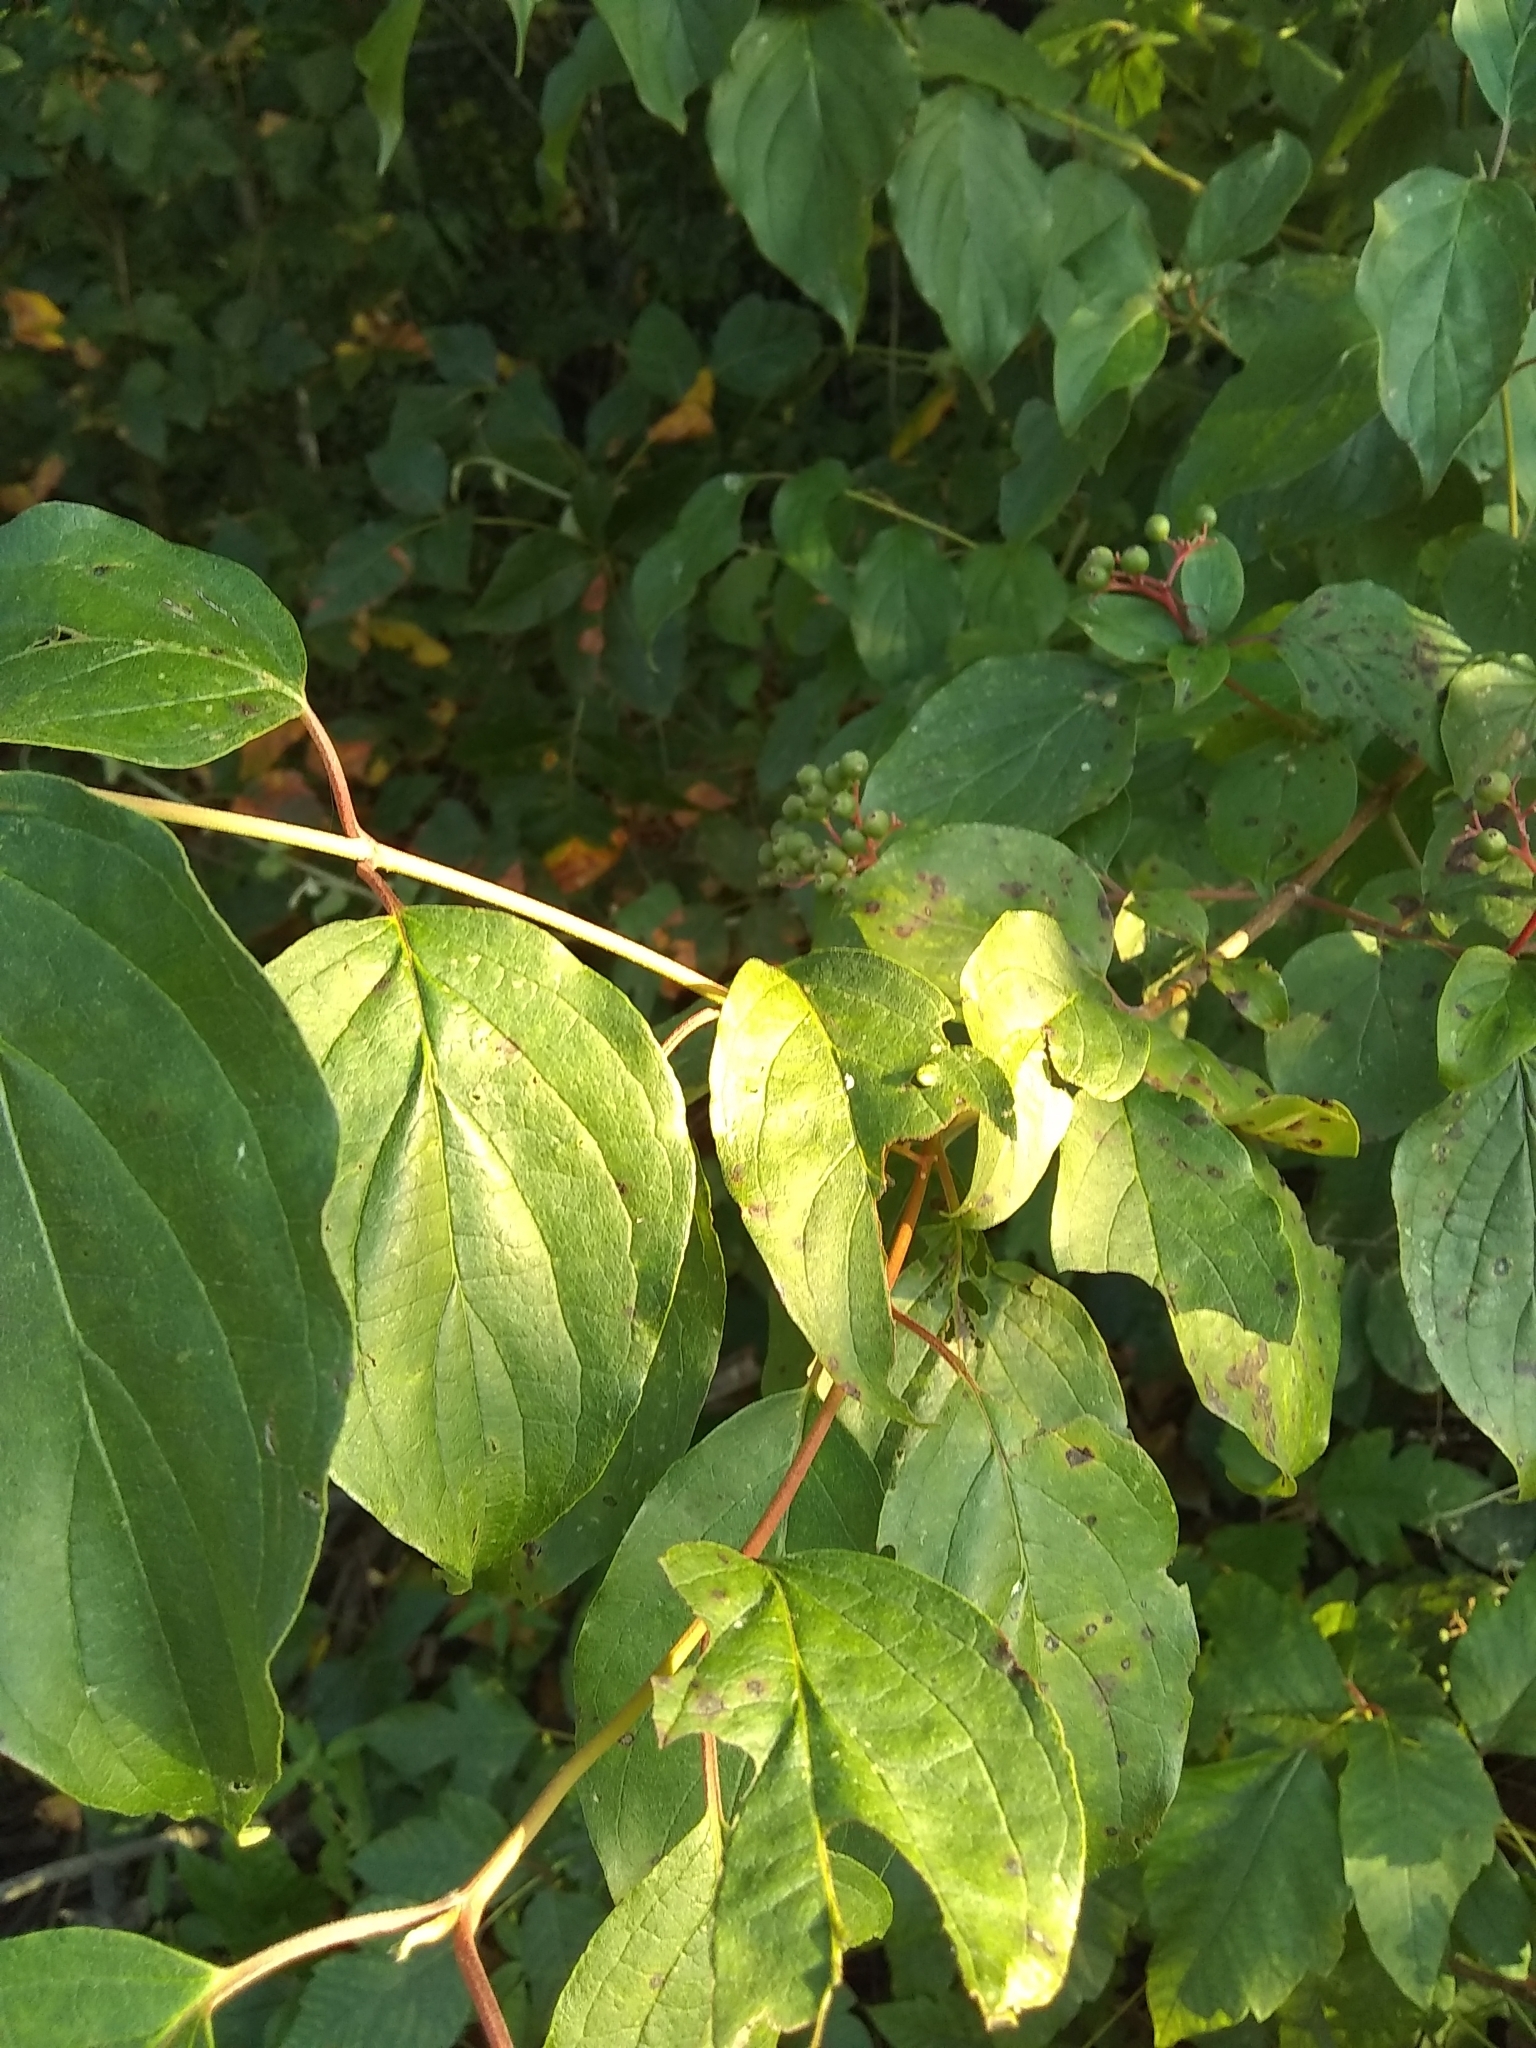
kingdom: Plantae
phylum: Tracheophyta
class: Magnoliopsida
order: Cornales
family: Cornaceae
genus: Cornus
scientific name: Cornus drummondii
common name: Rough-leaf dogwood
